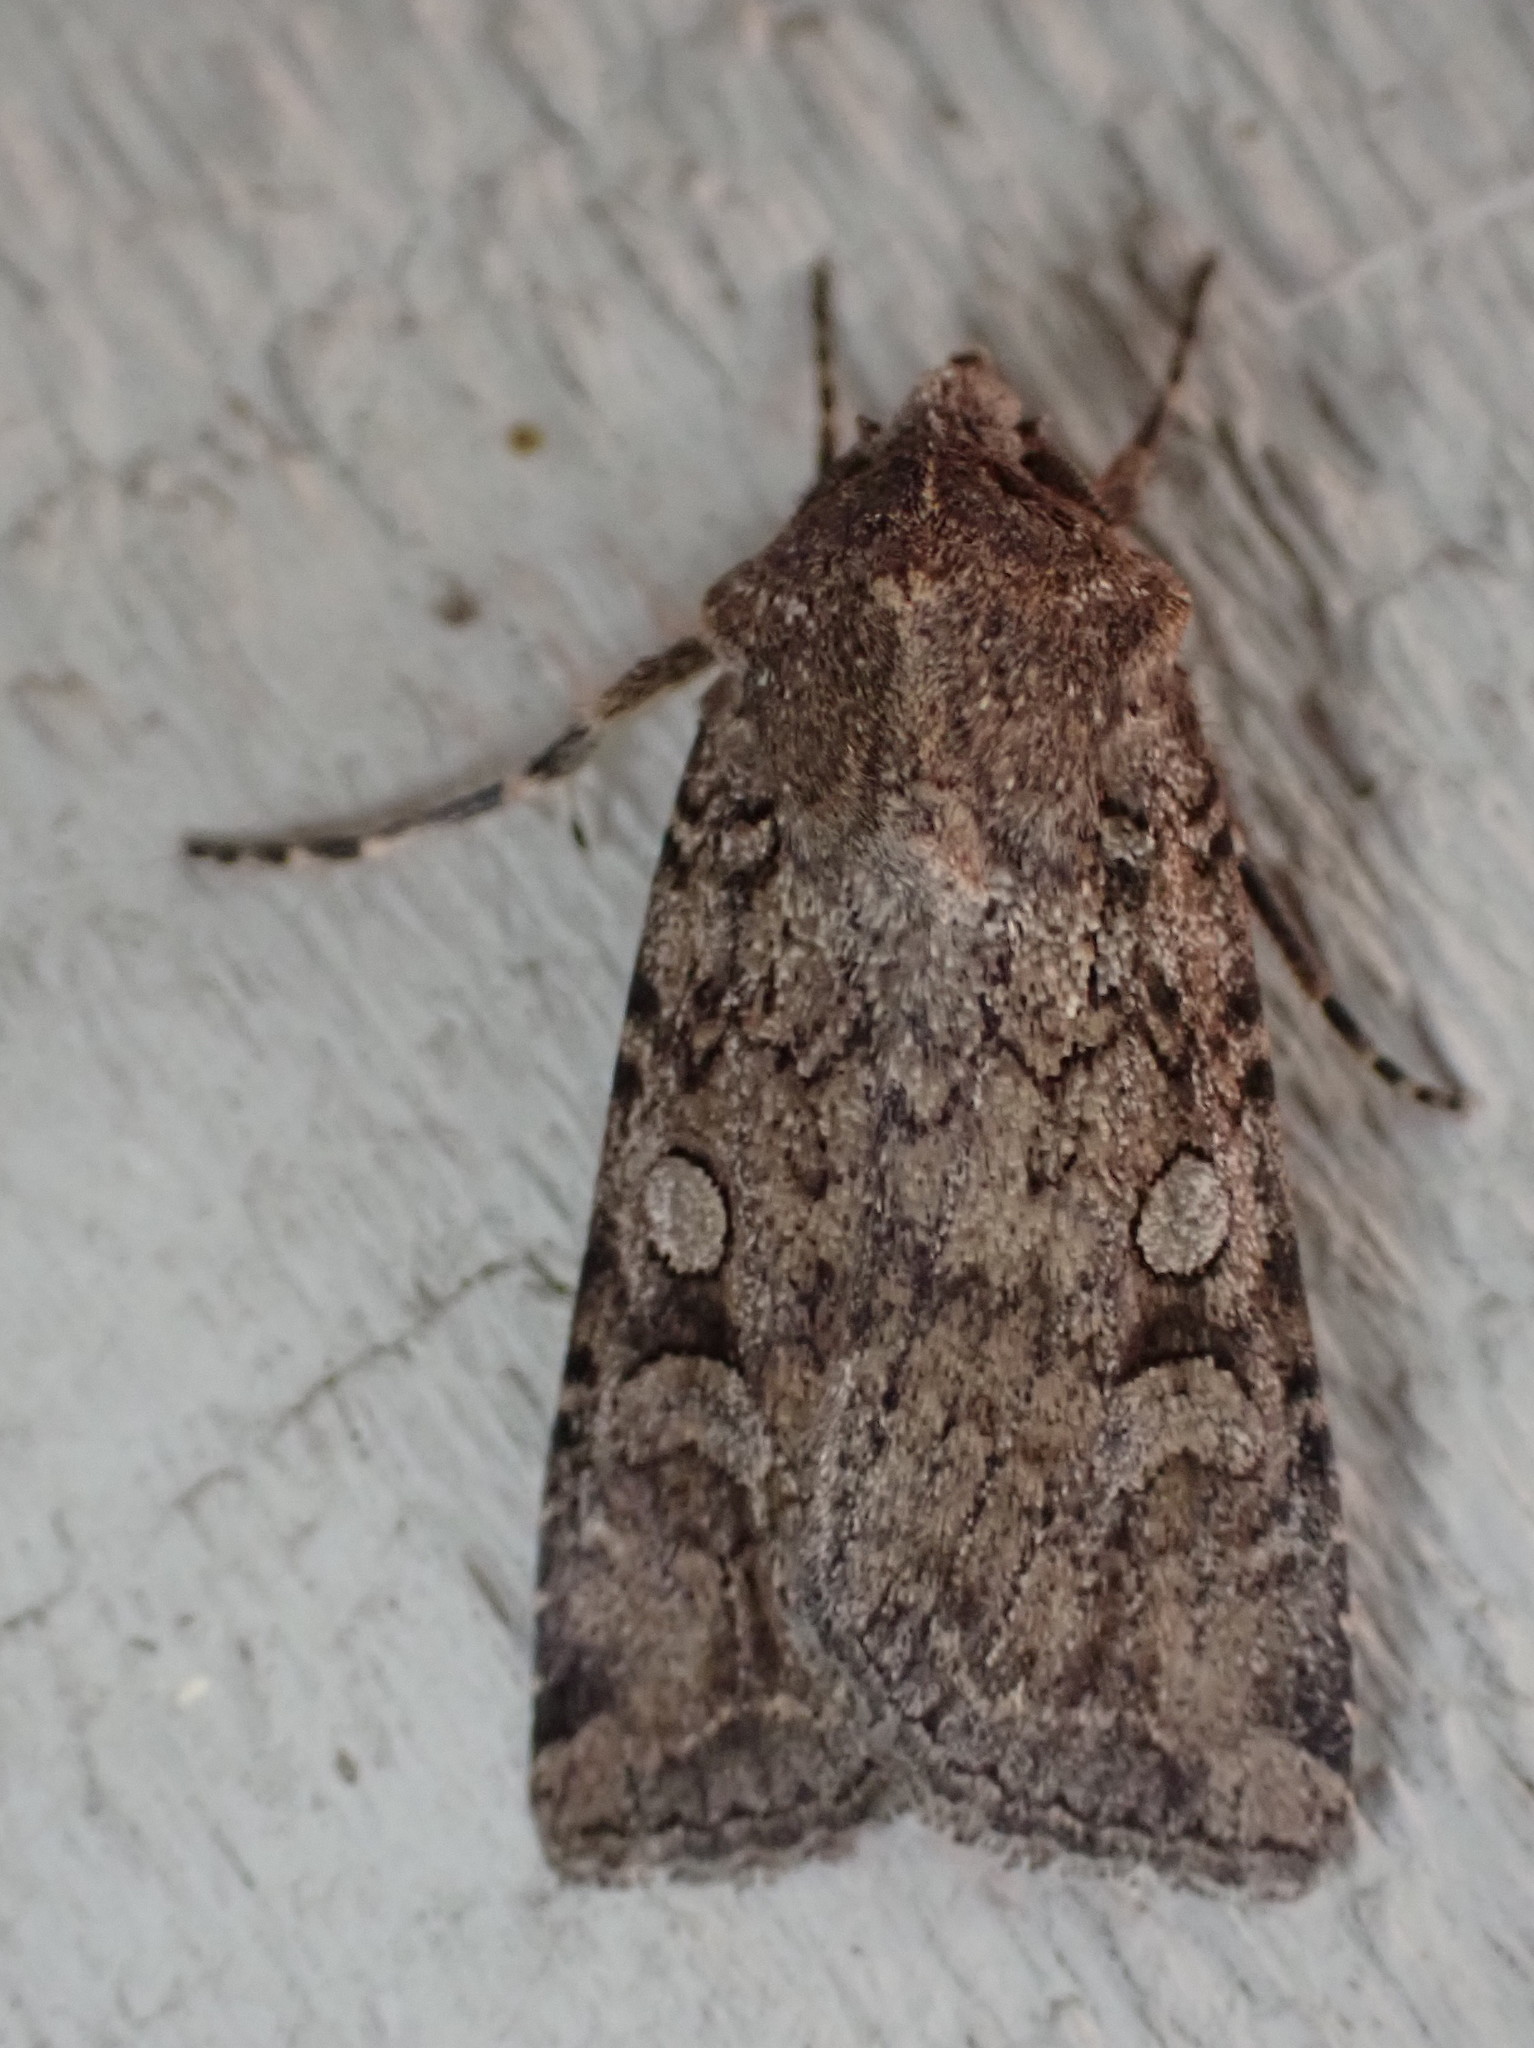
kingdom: Animalia
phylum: Arthropoda
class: Insecta
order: Lepidoptera
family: Noctuidae
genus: Euxoa
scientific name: Euxoa messoria
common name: Darksided cutworm
